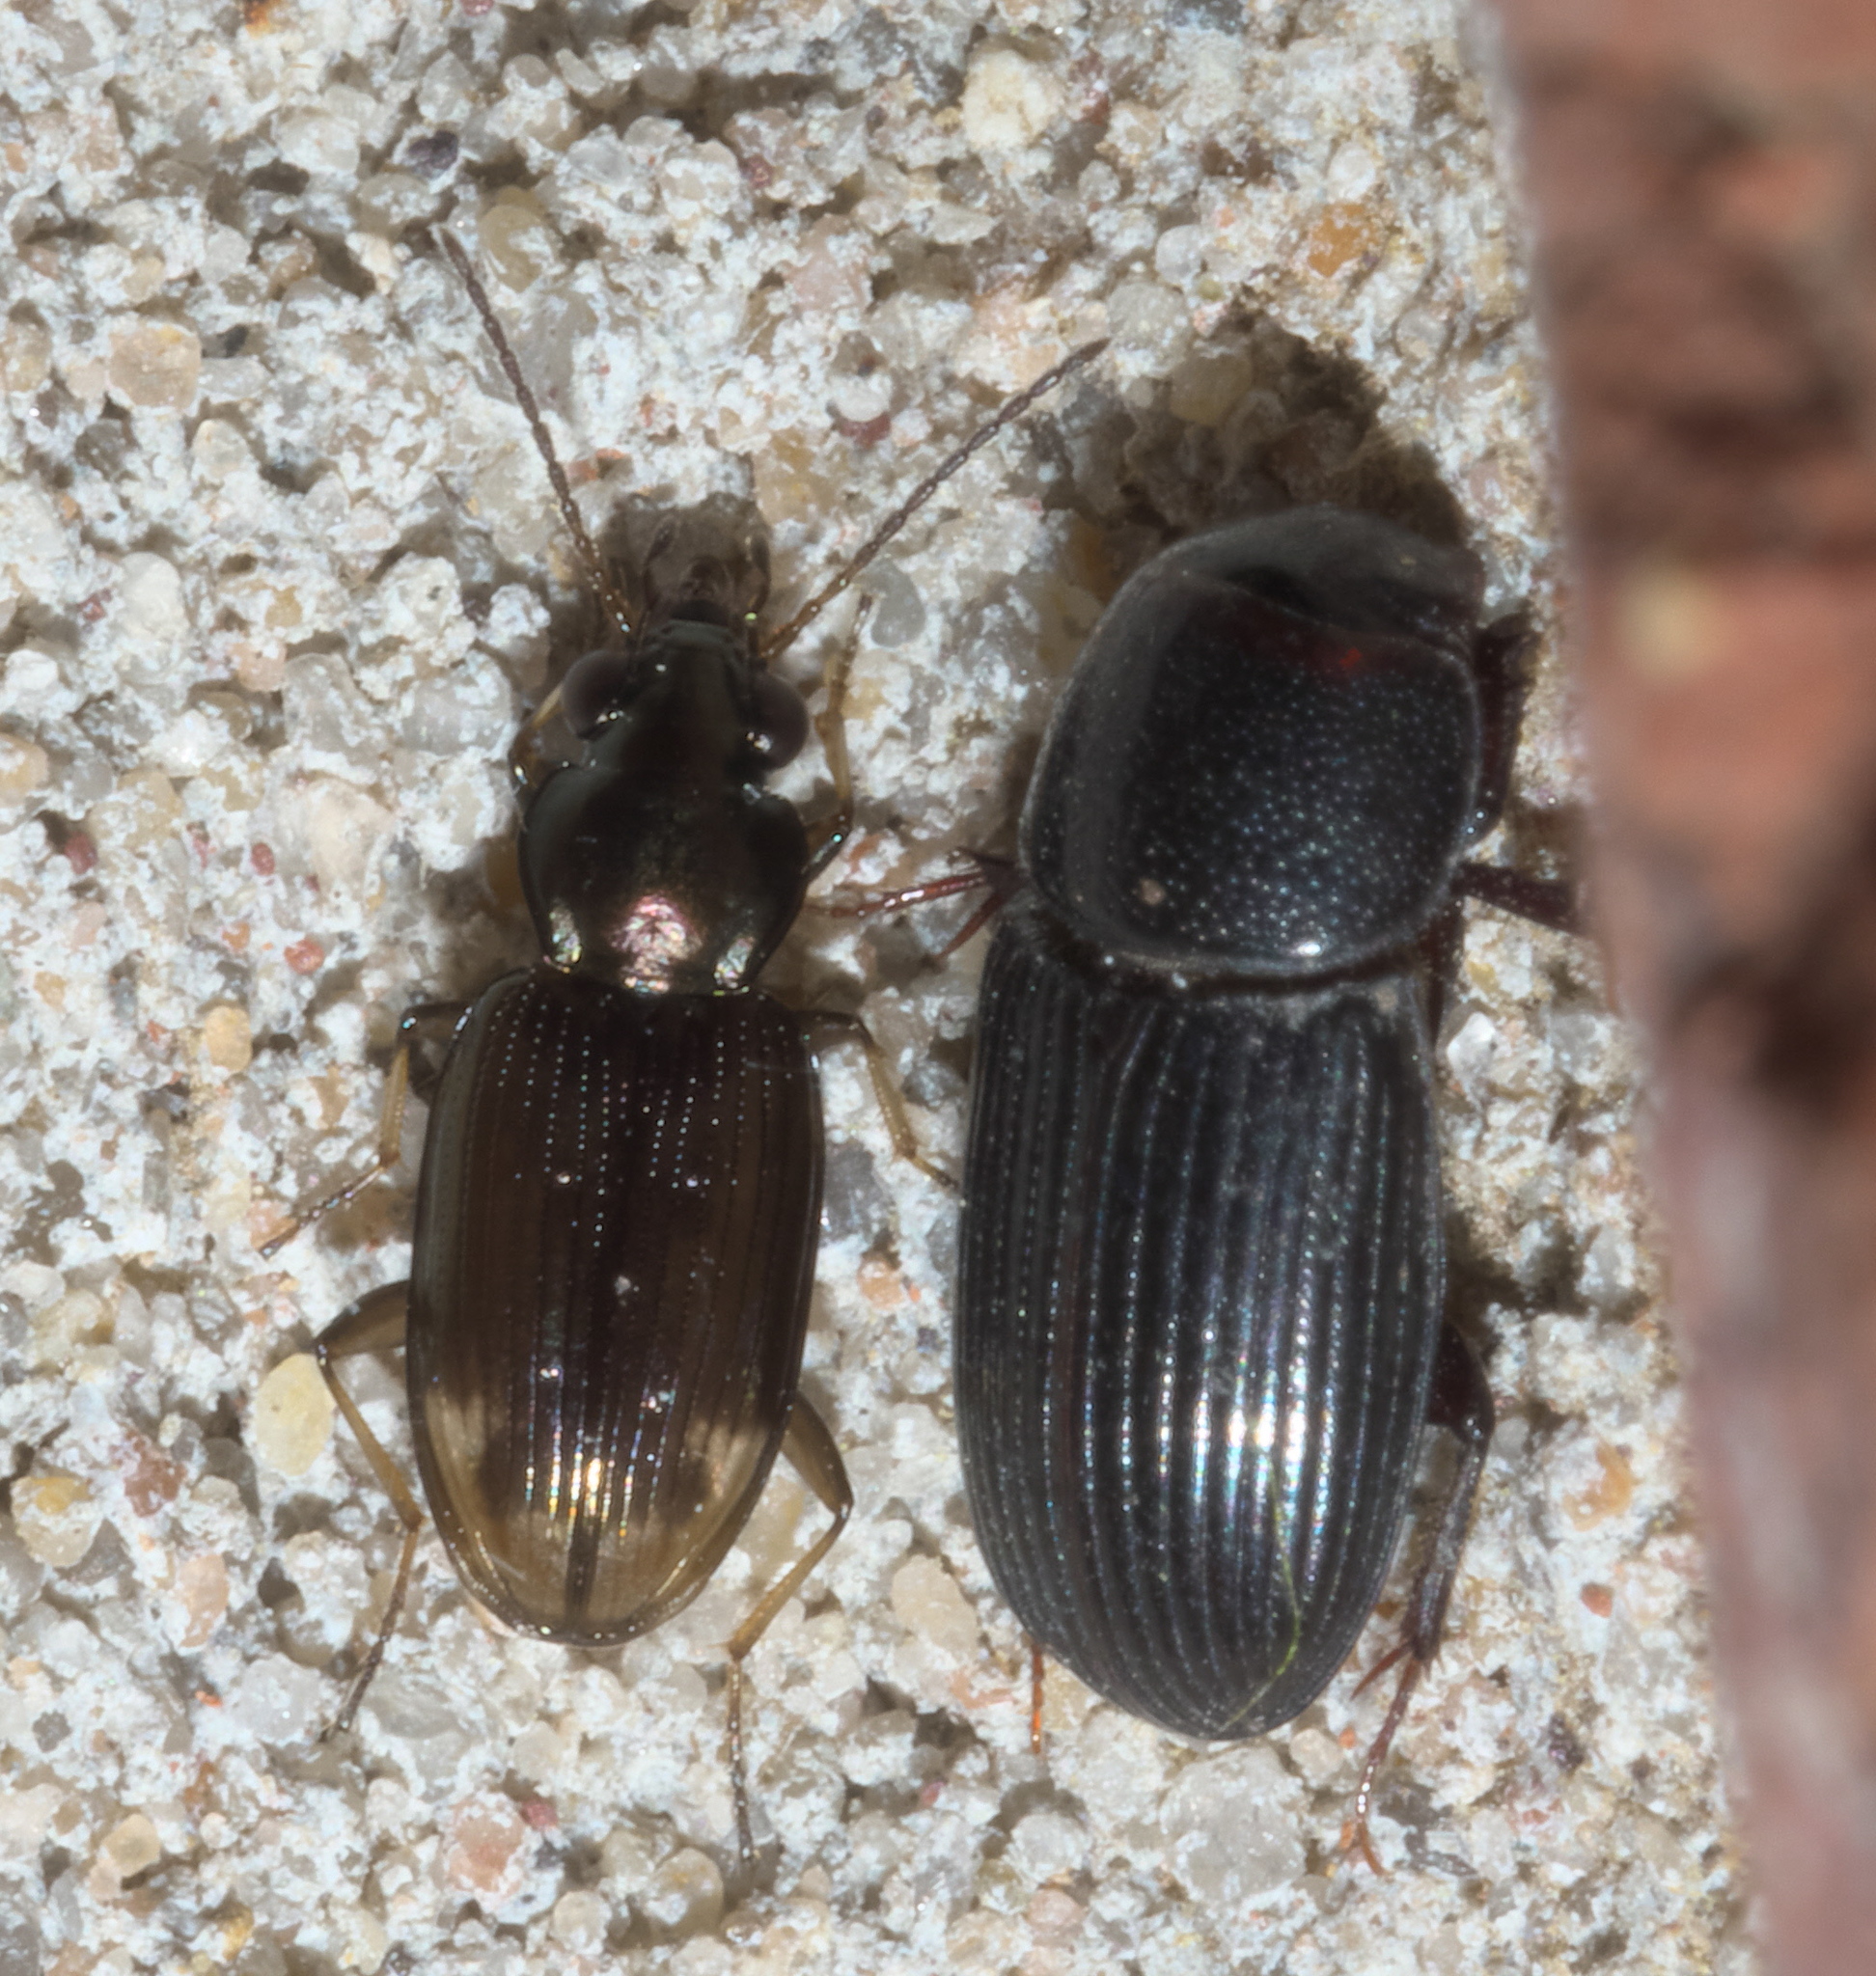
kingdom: Animalia
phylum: Arthropoda
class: Insecta
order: Coleoptera
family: Carabidae
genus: Bembidion
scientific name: Bembidion rapidum
